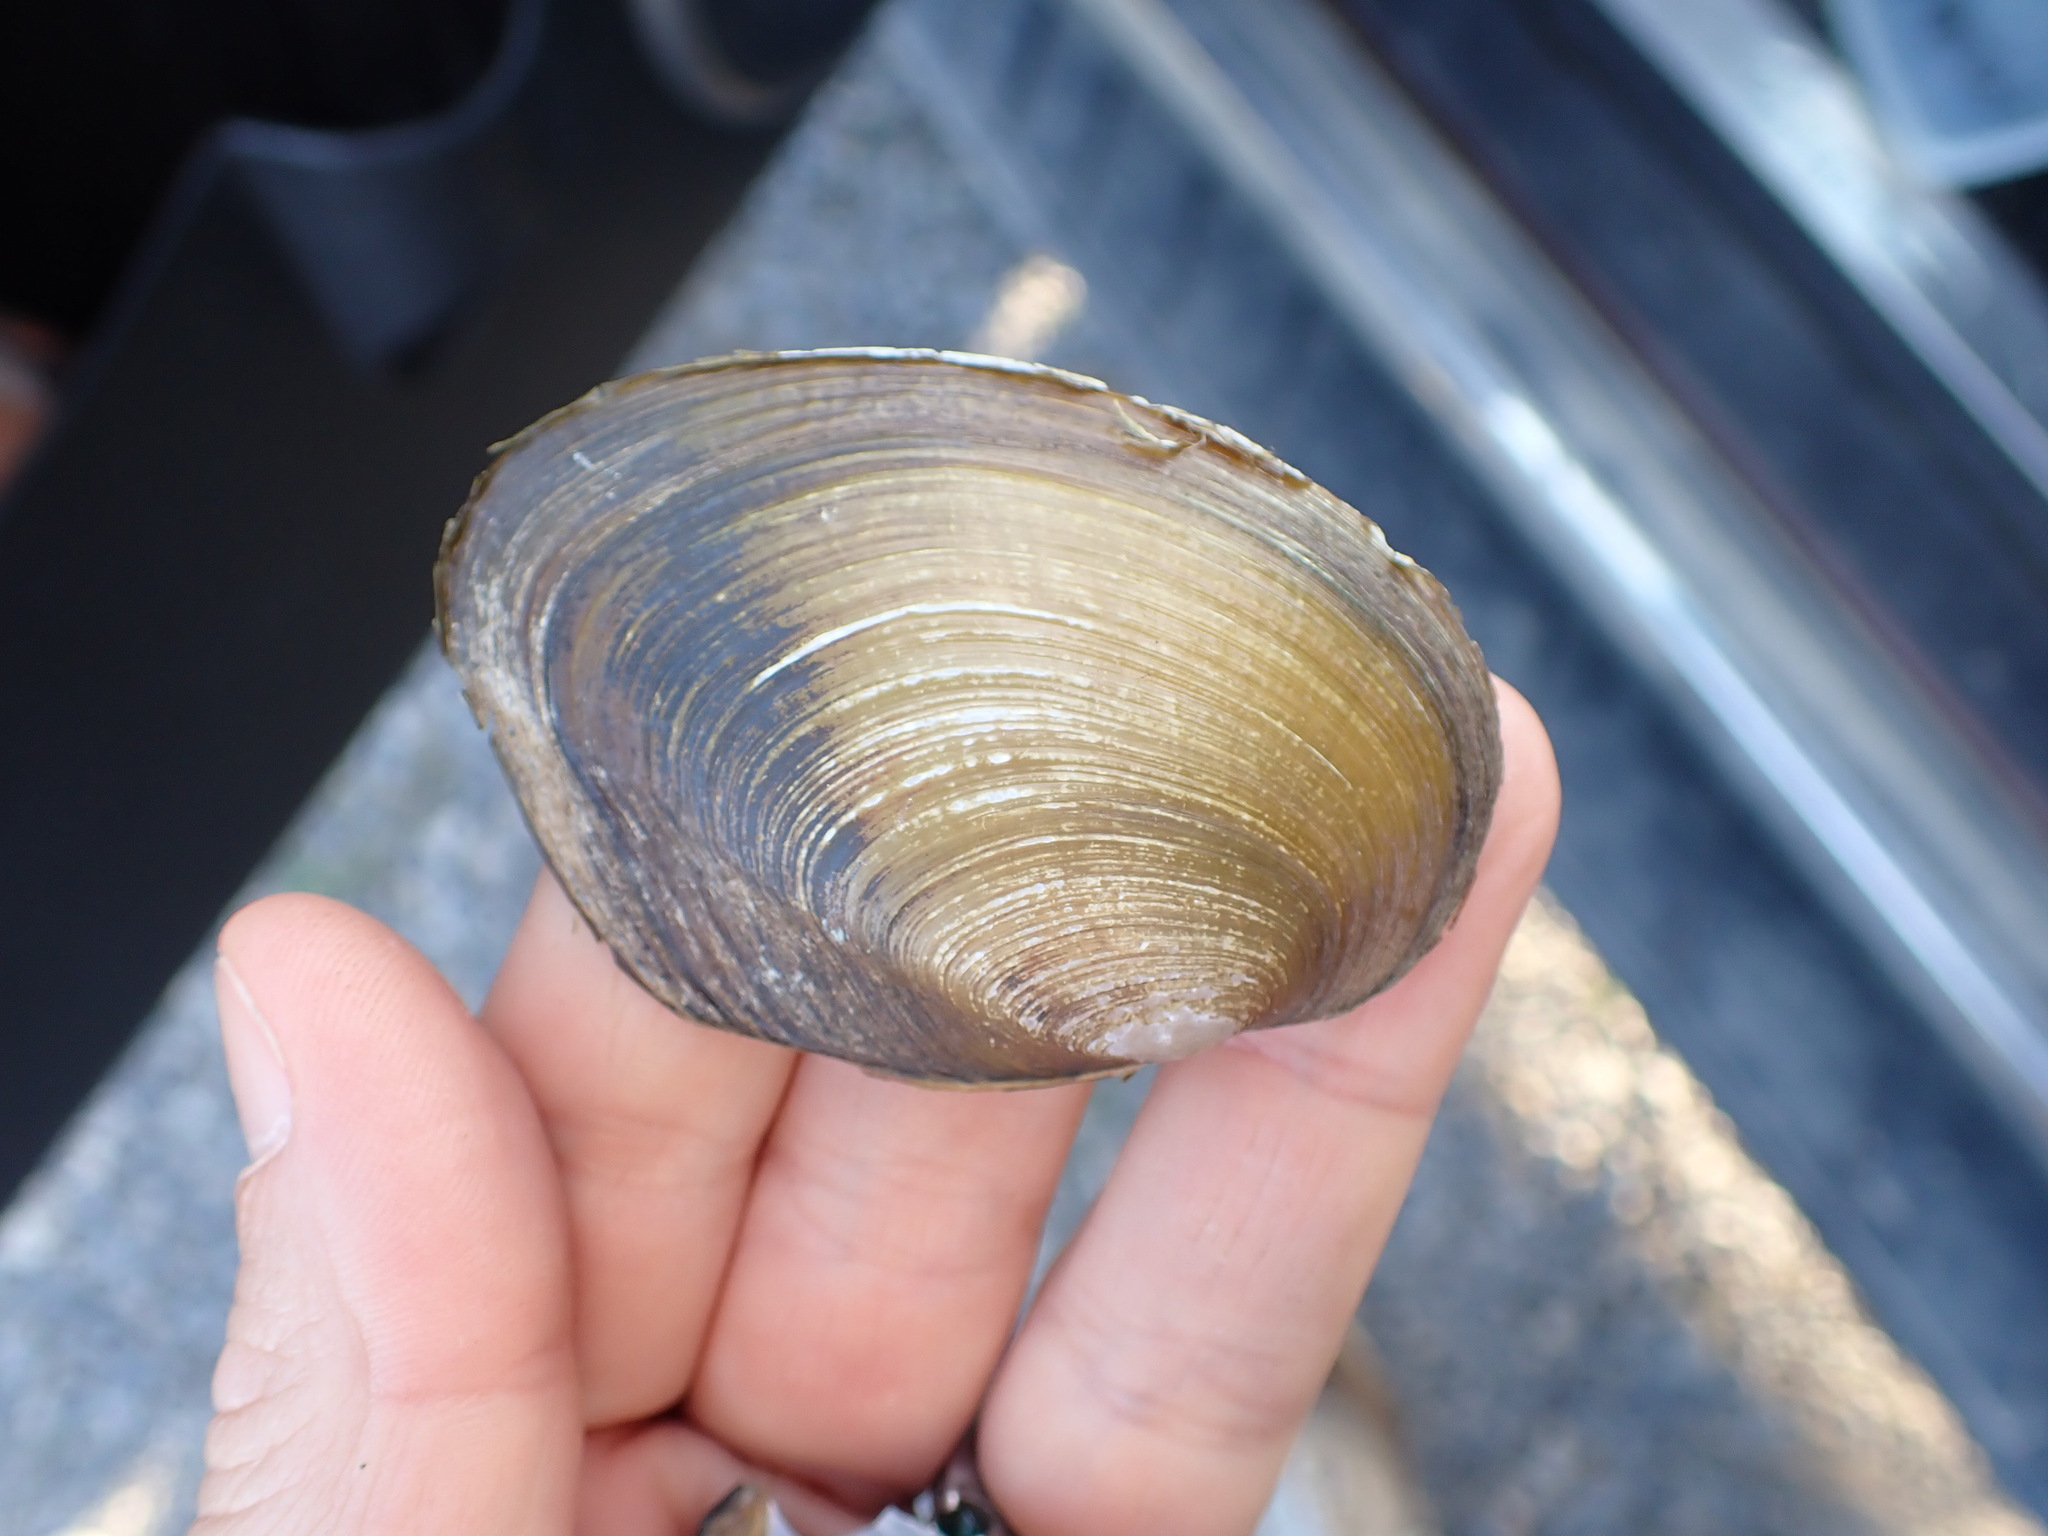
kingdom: Animalia
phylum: Mollusca
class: Bivalvia
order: Unionida
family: Hyriidae
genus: Echyridella
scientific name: Echyridella menziesii
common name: New zealand freshwater mussel
